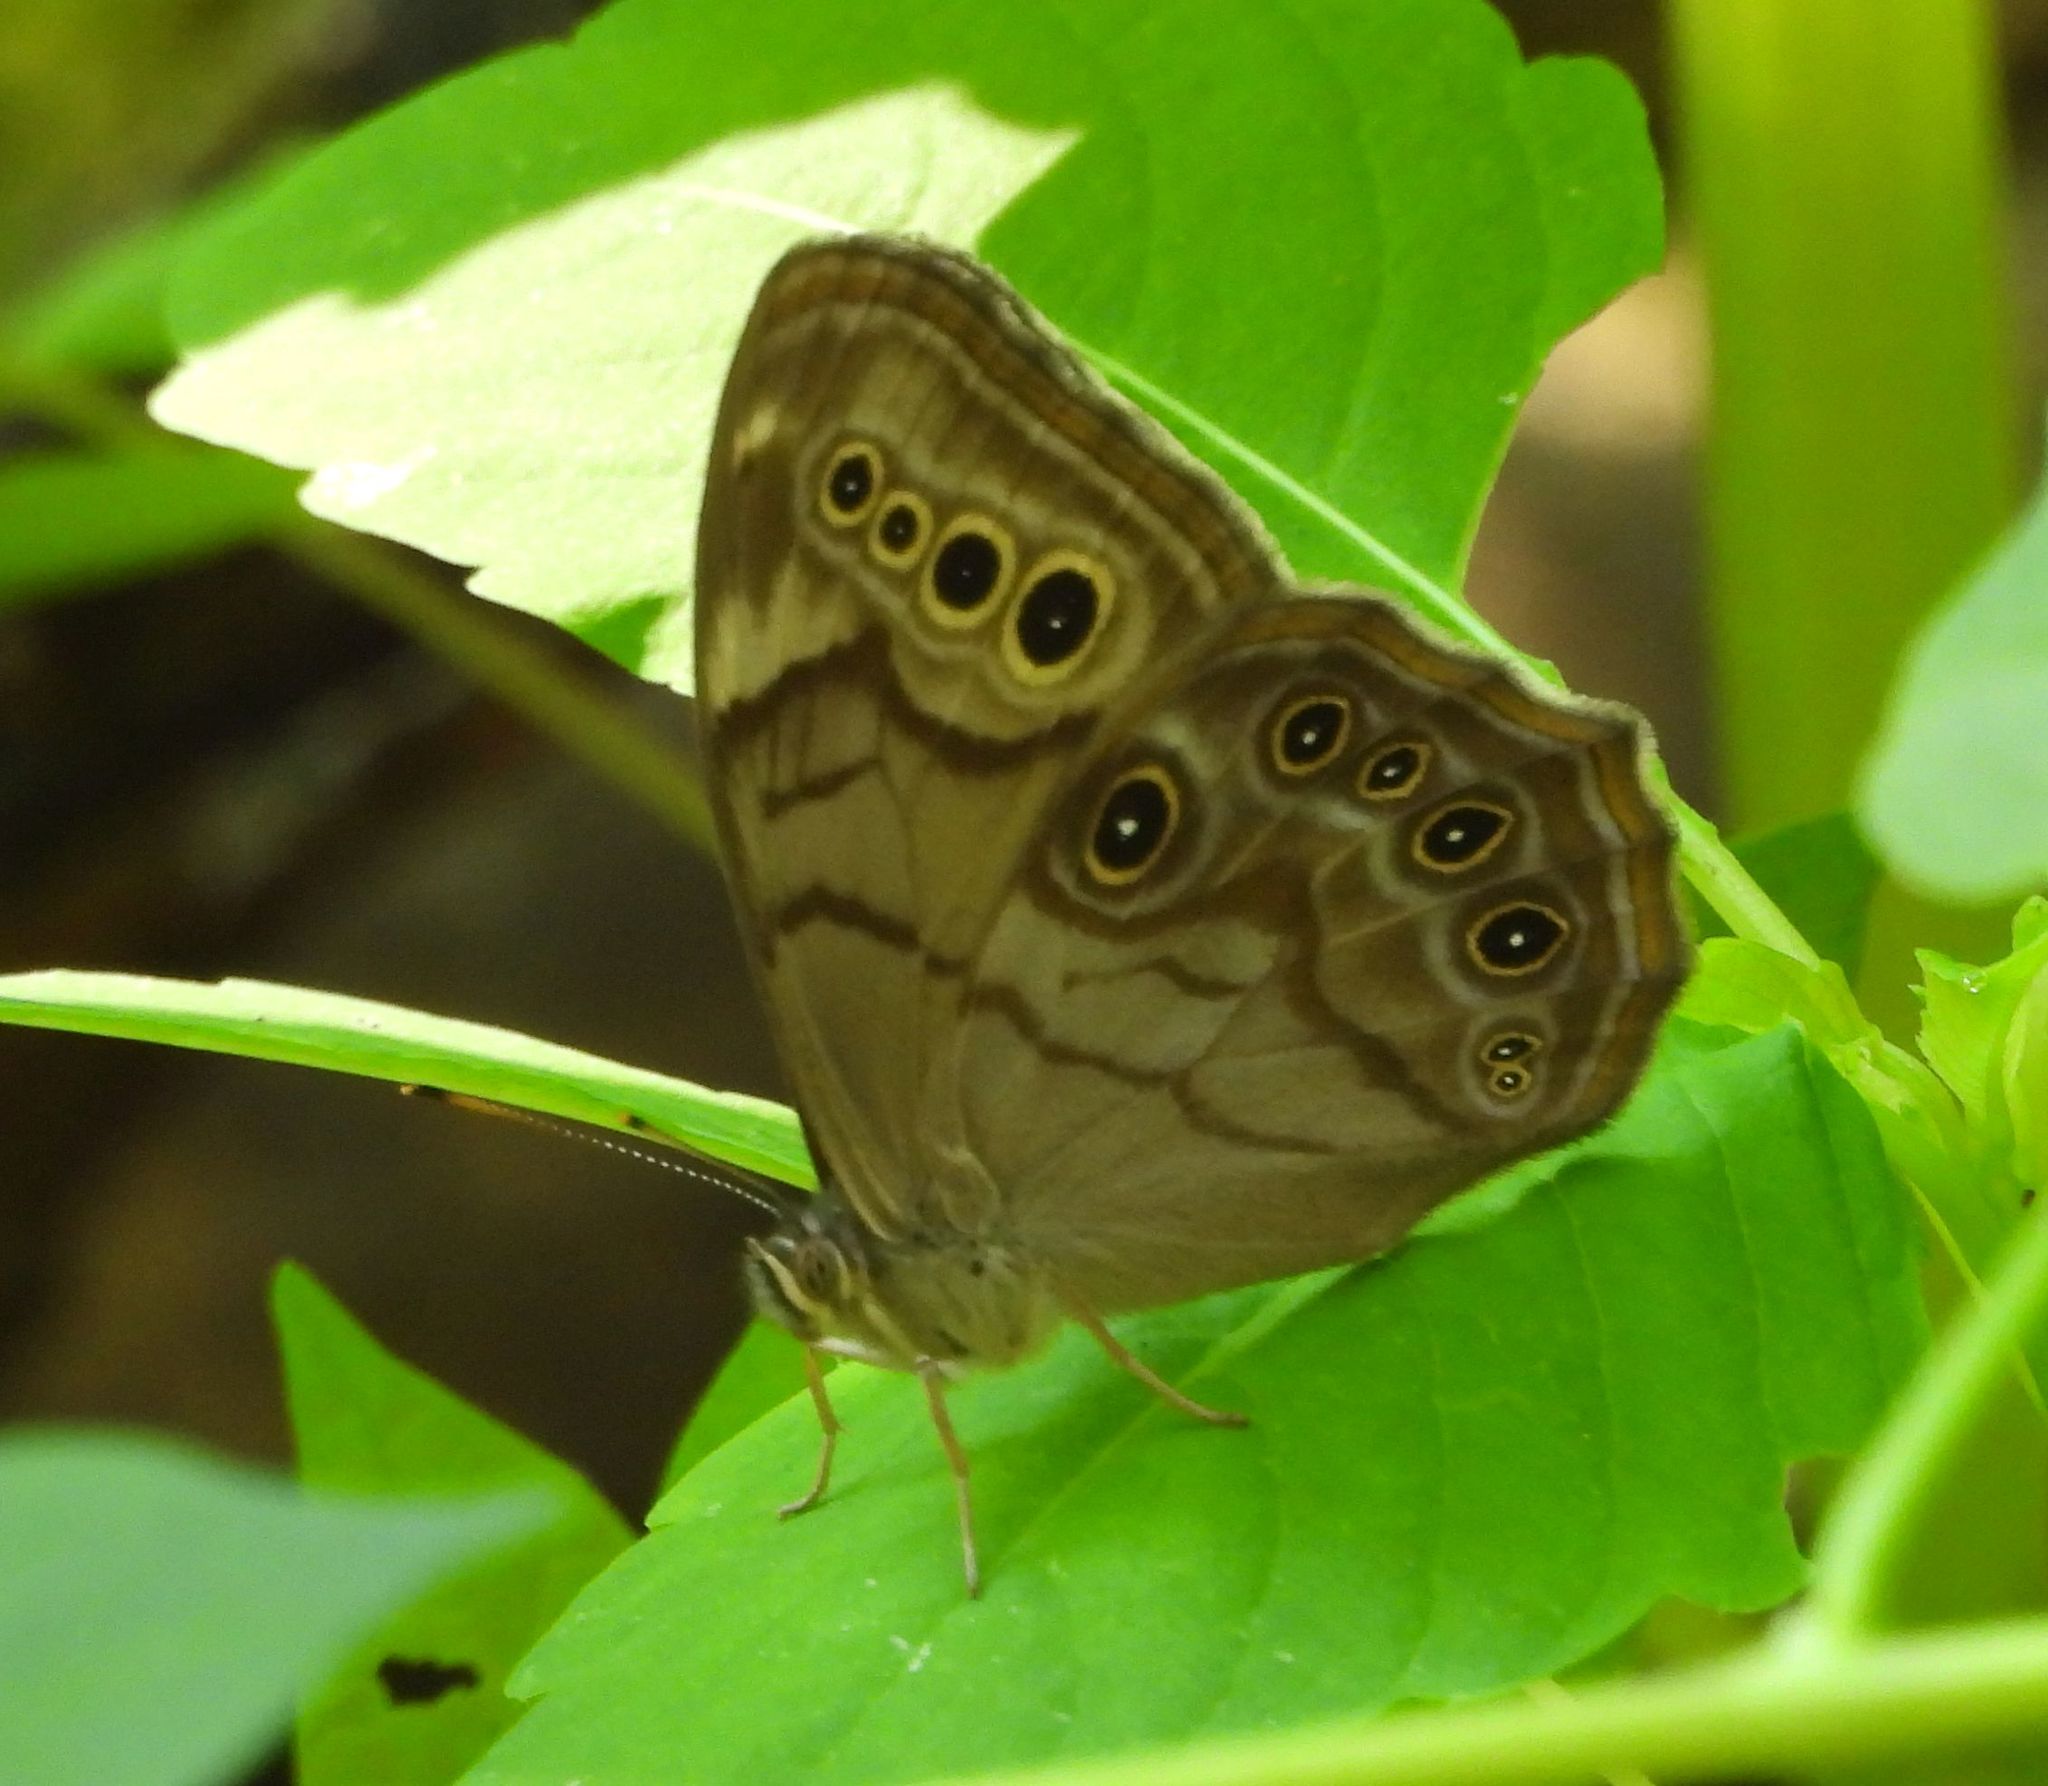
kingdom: Animalia
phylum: Arthropoda
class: Insecta
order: Lepidoptera
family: Nymphalidae
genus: Lethe
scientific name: Lethe anthedon
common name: Northern pearly-eye
